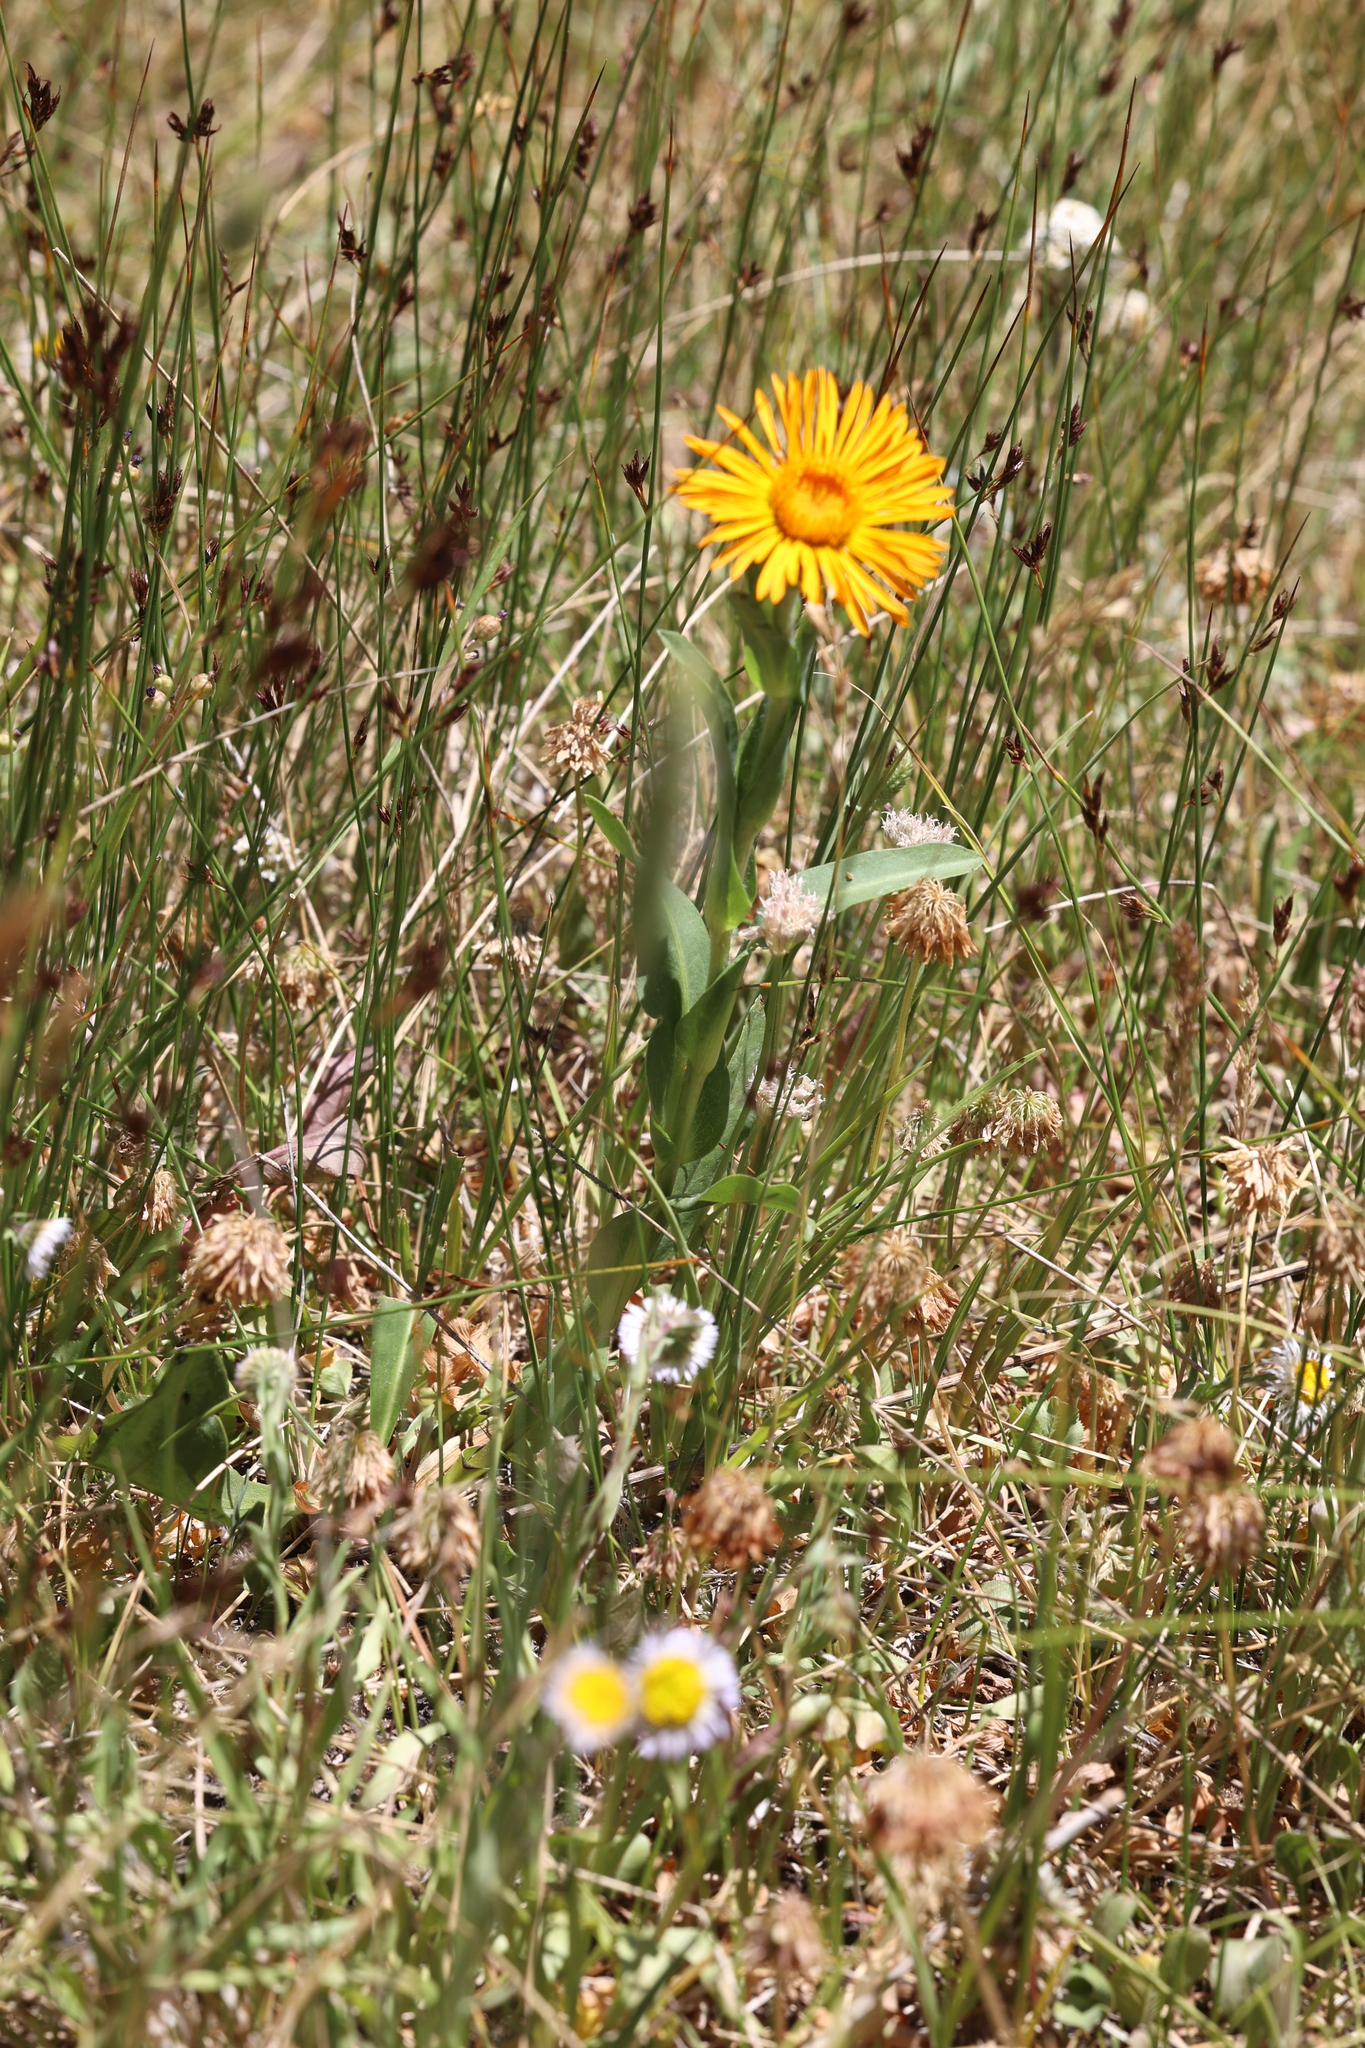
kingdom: Plantae
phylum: Tracheophyta
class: Magnoliopsida
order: Asterales
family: Asteraceae
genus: Pyrrocoma
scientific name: Pyrrocoma crocea
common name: Curly-head goldenweed
